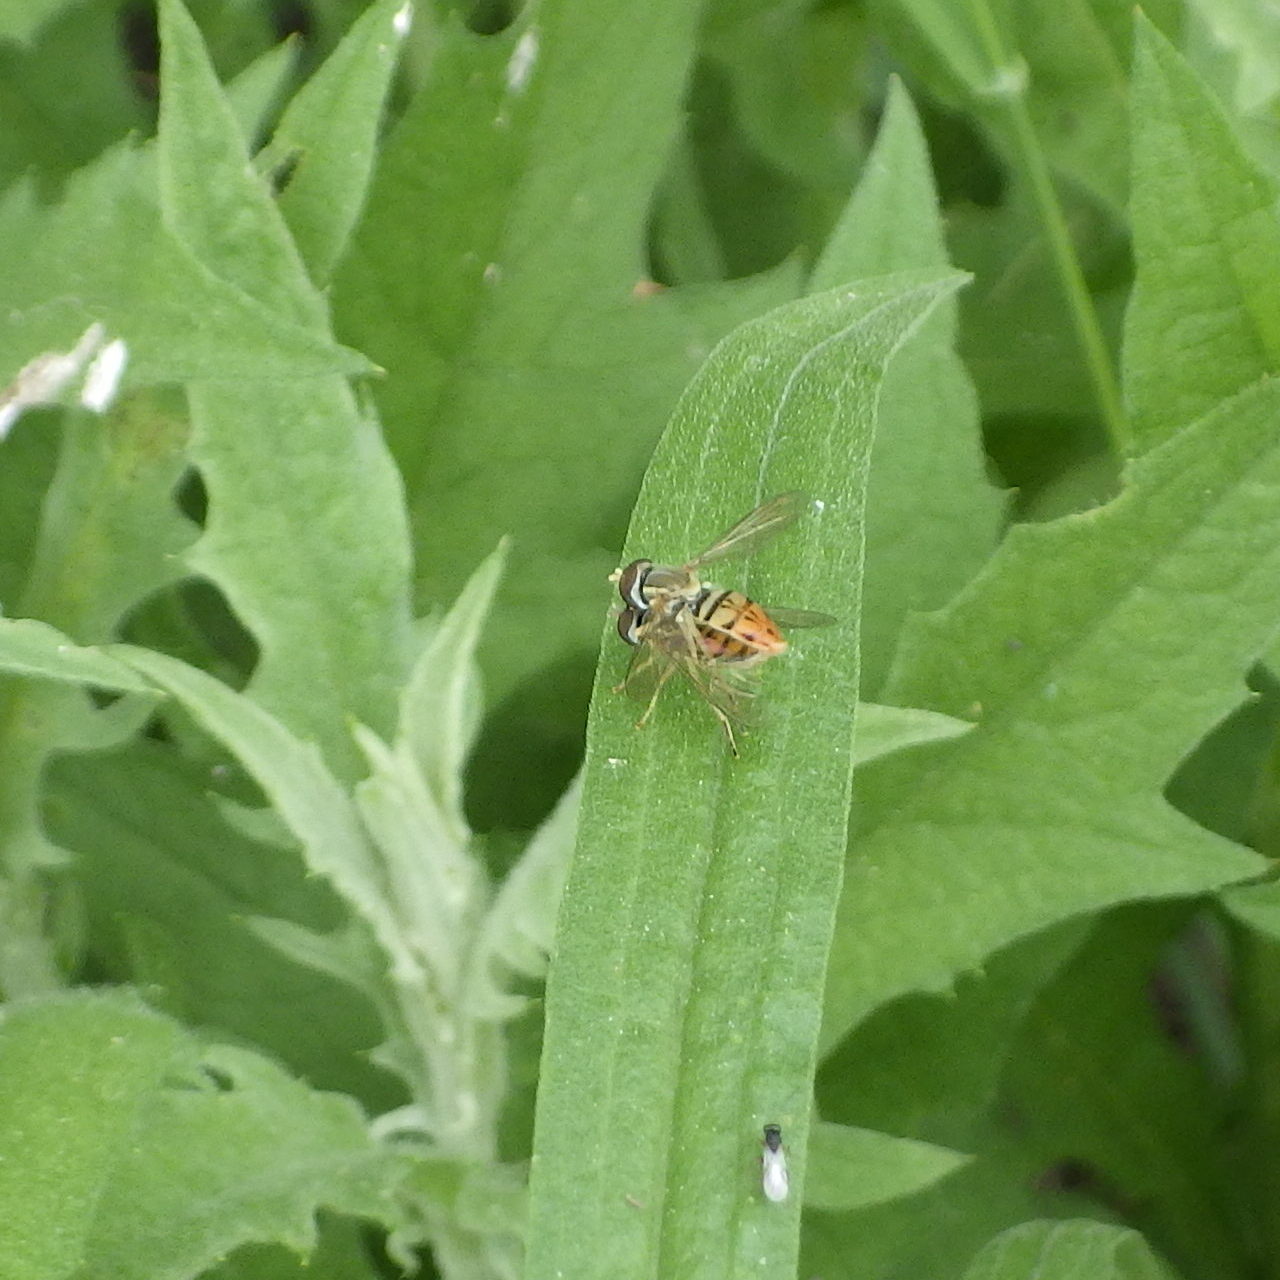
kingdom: Animalia
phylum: Arthropoda
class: Insecta
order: Diptera
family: Syrphidae
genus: Toxomerus
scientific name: Toxomerus marginatus
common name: Syrphid fly
